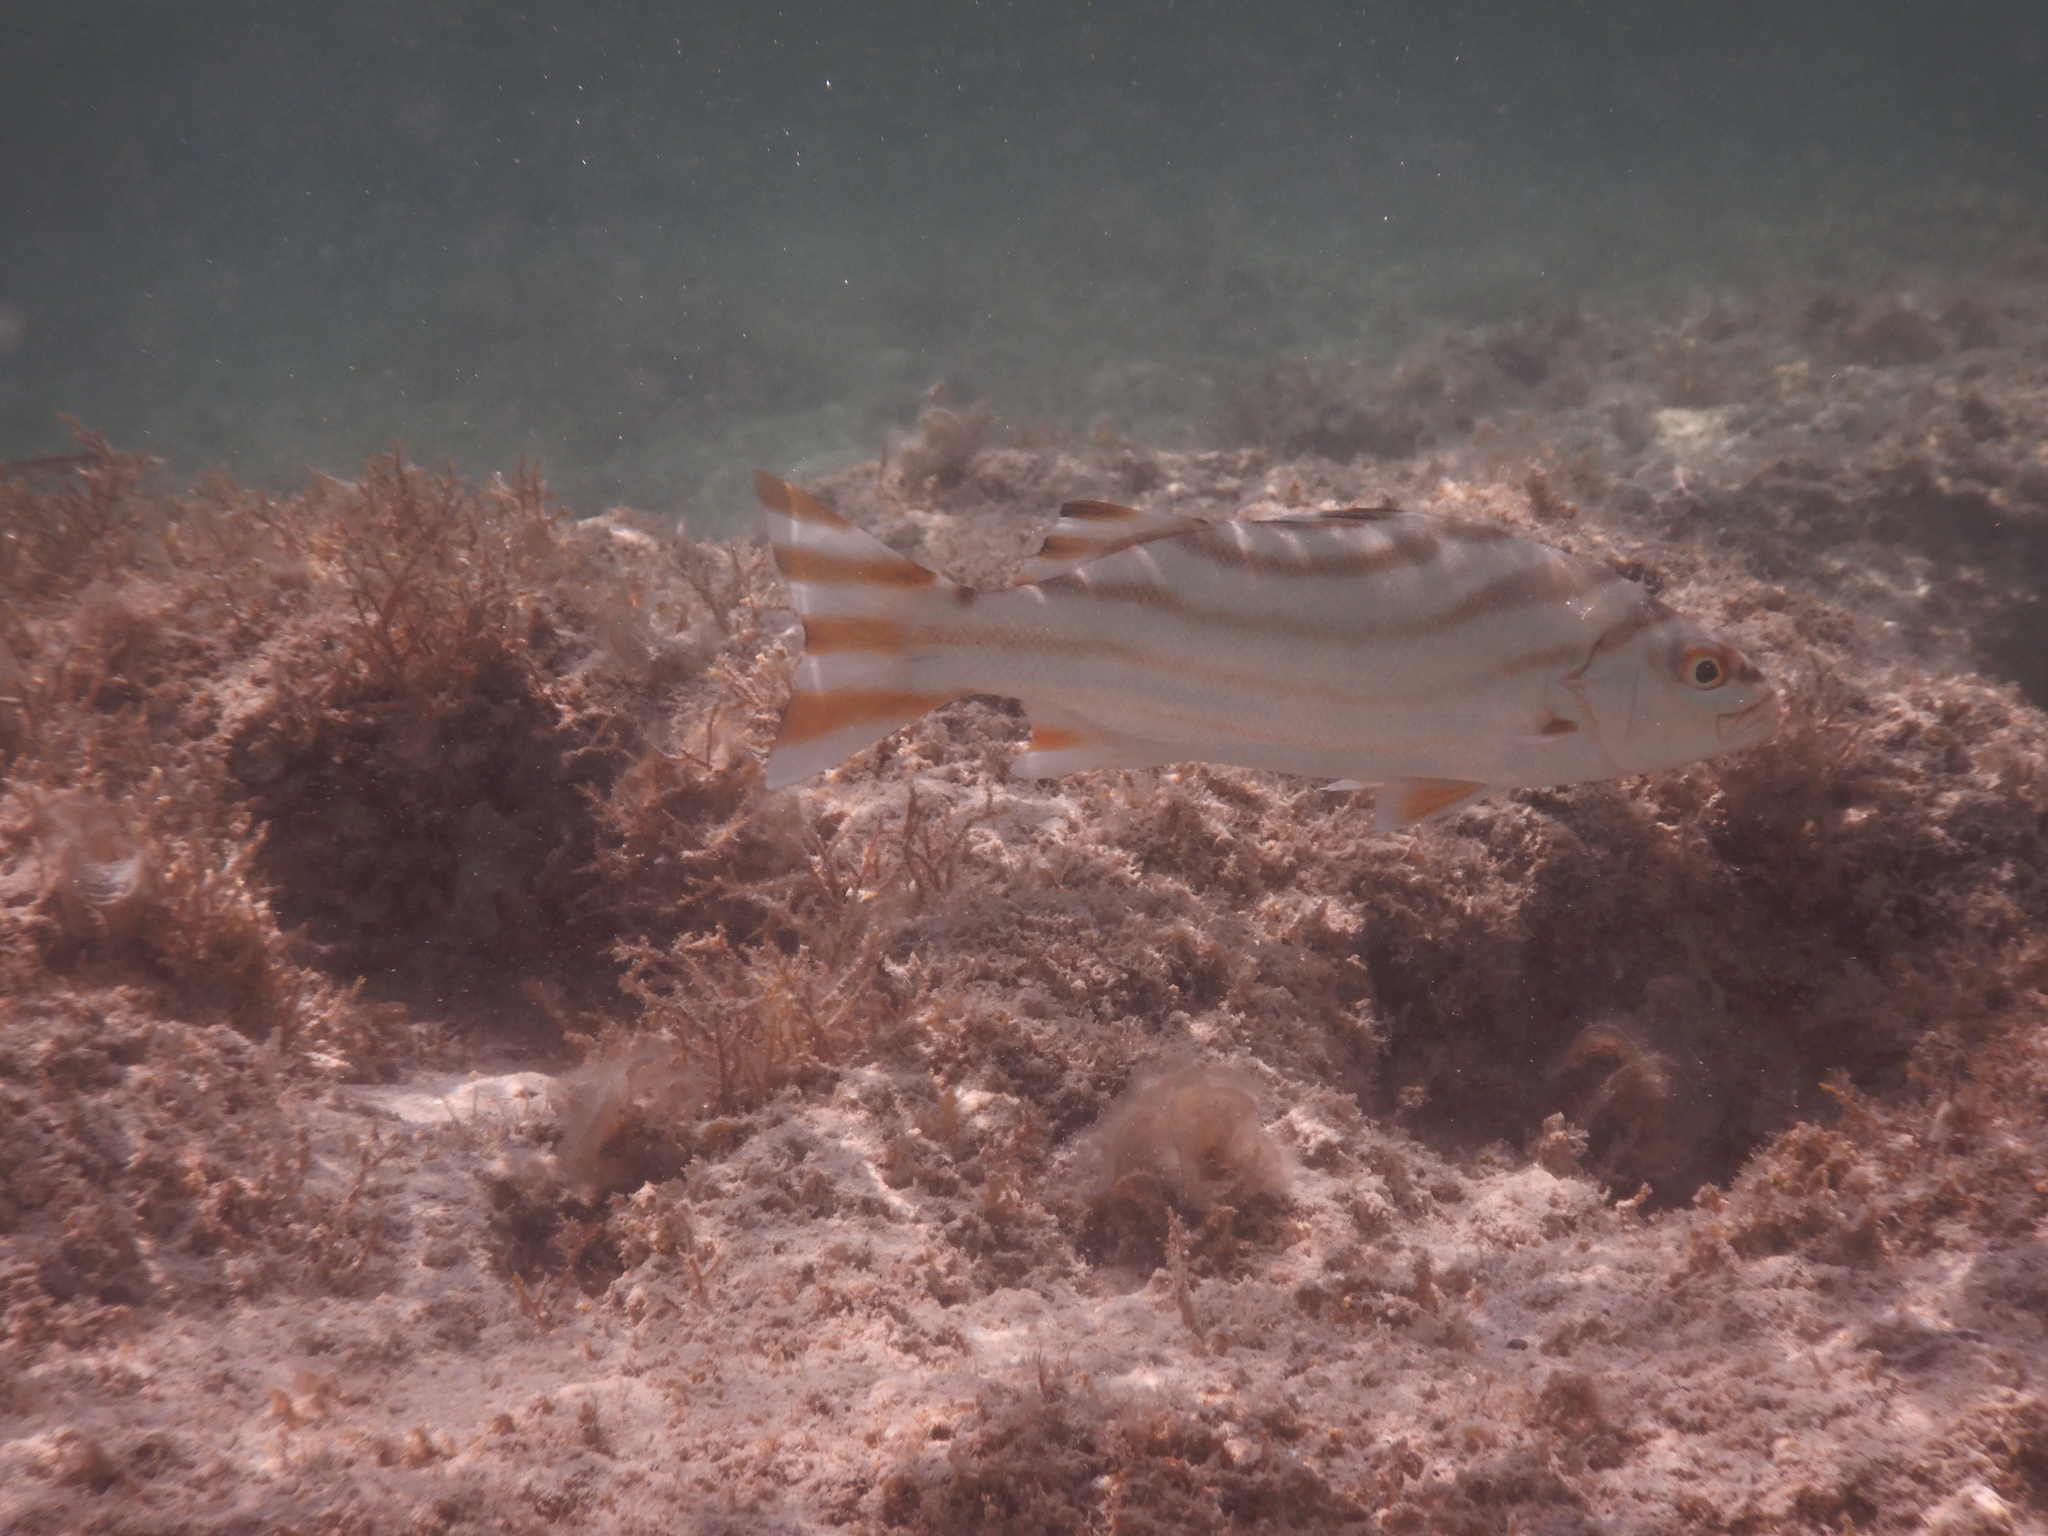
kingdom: Animalia
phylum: Chordata
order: Perciformes
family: Terapontidae
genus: Terapon
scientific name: Terapon jarbua
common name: Jarbua terapon
